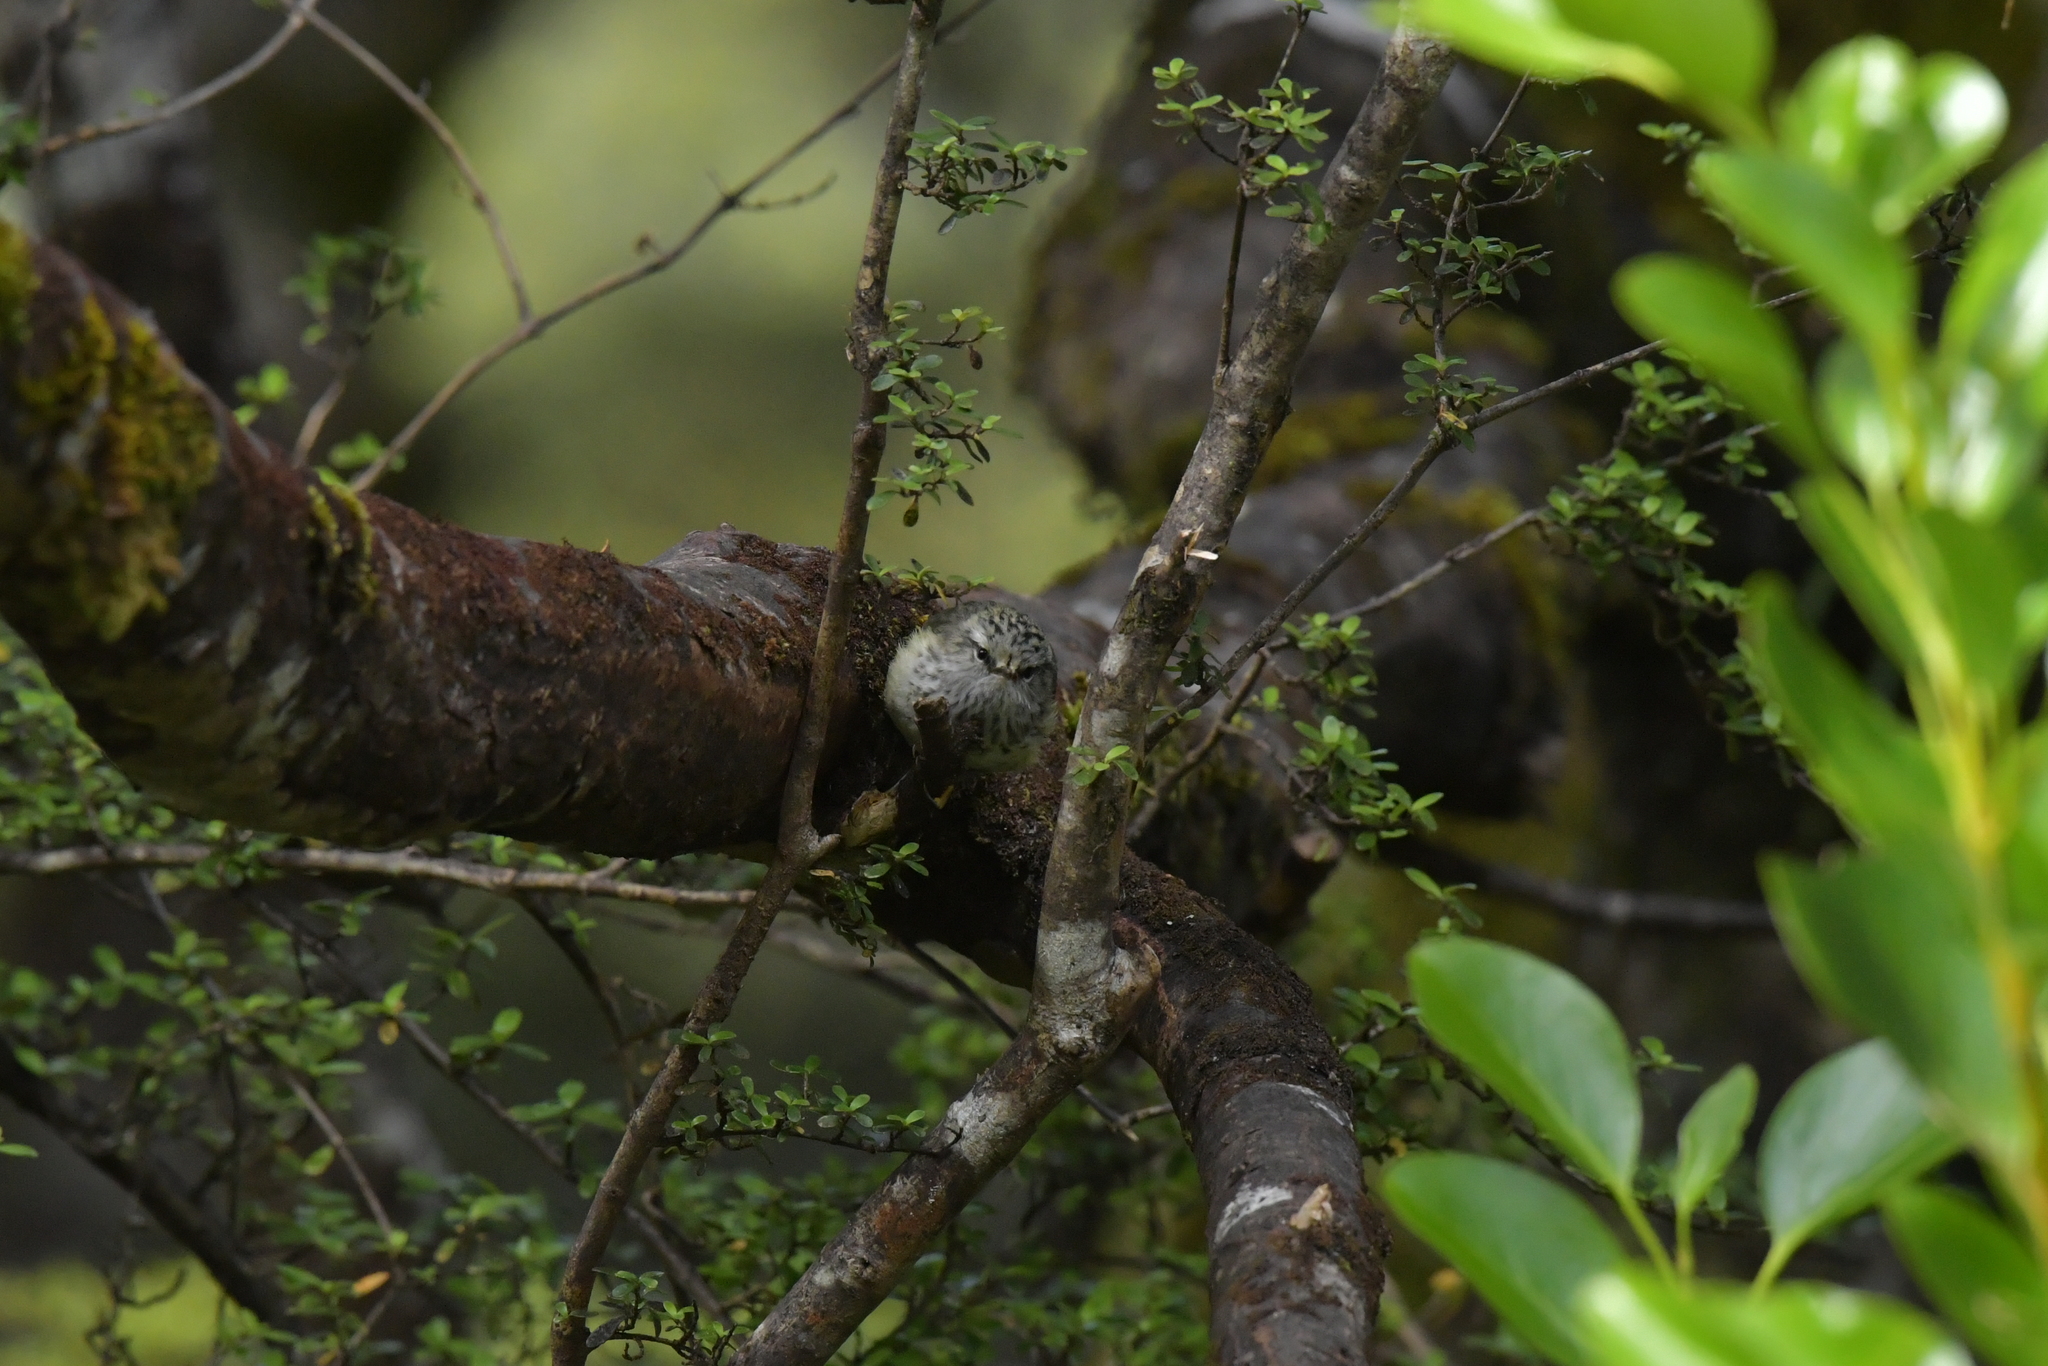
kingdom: Animalia
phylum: Chordata
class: Aves
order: Passeriformes
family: Acanthisittidae
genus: Acanthisitta
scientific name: Acanthisitta chloris
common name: Rifleman
